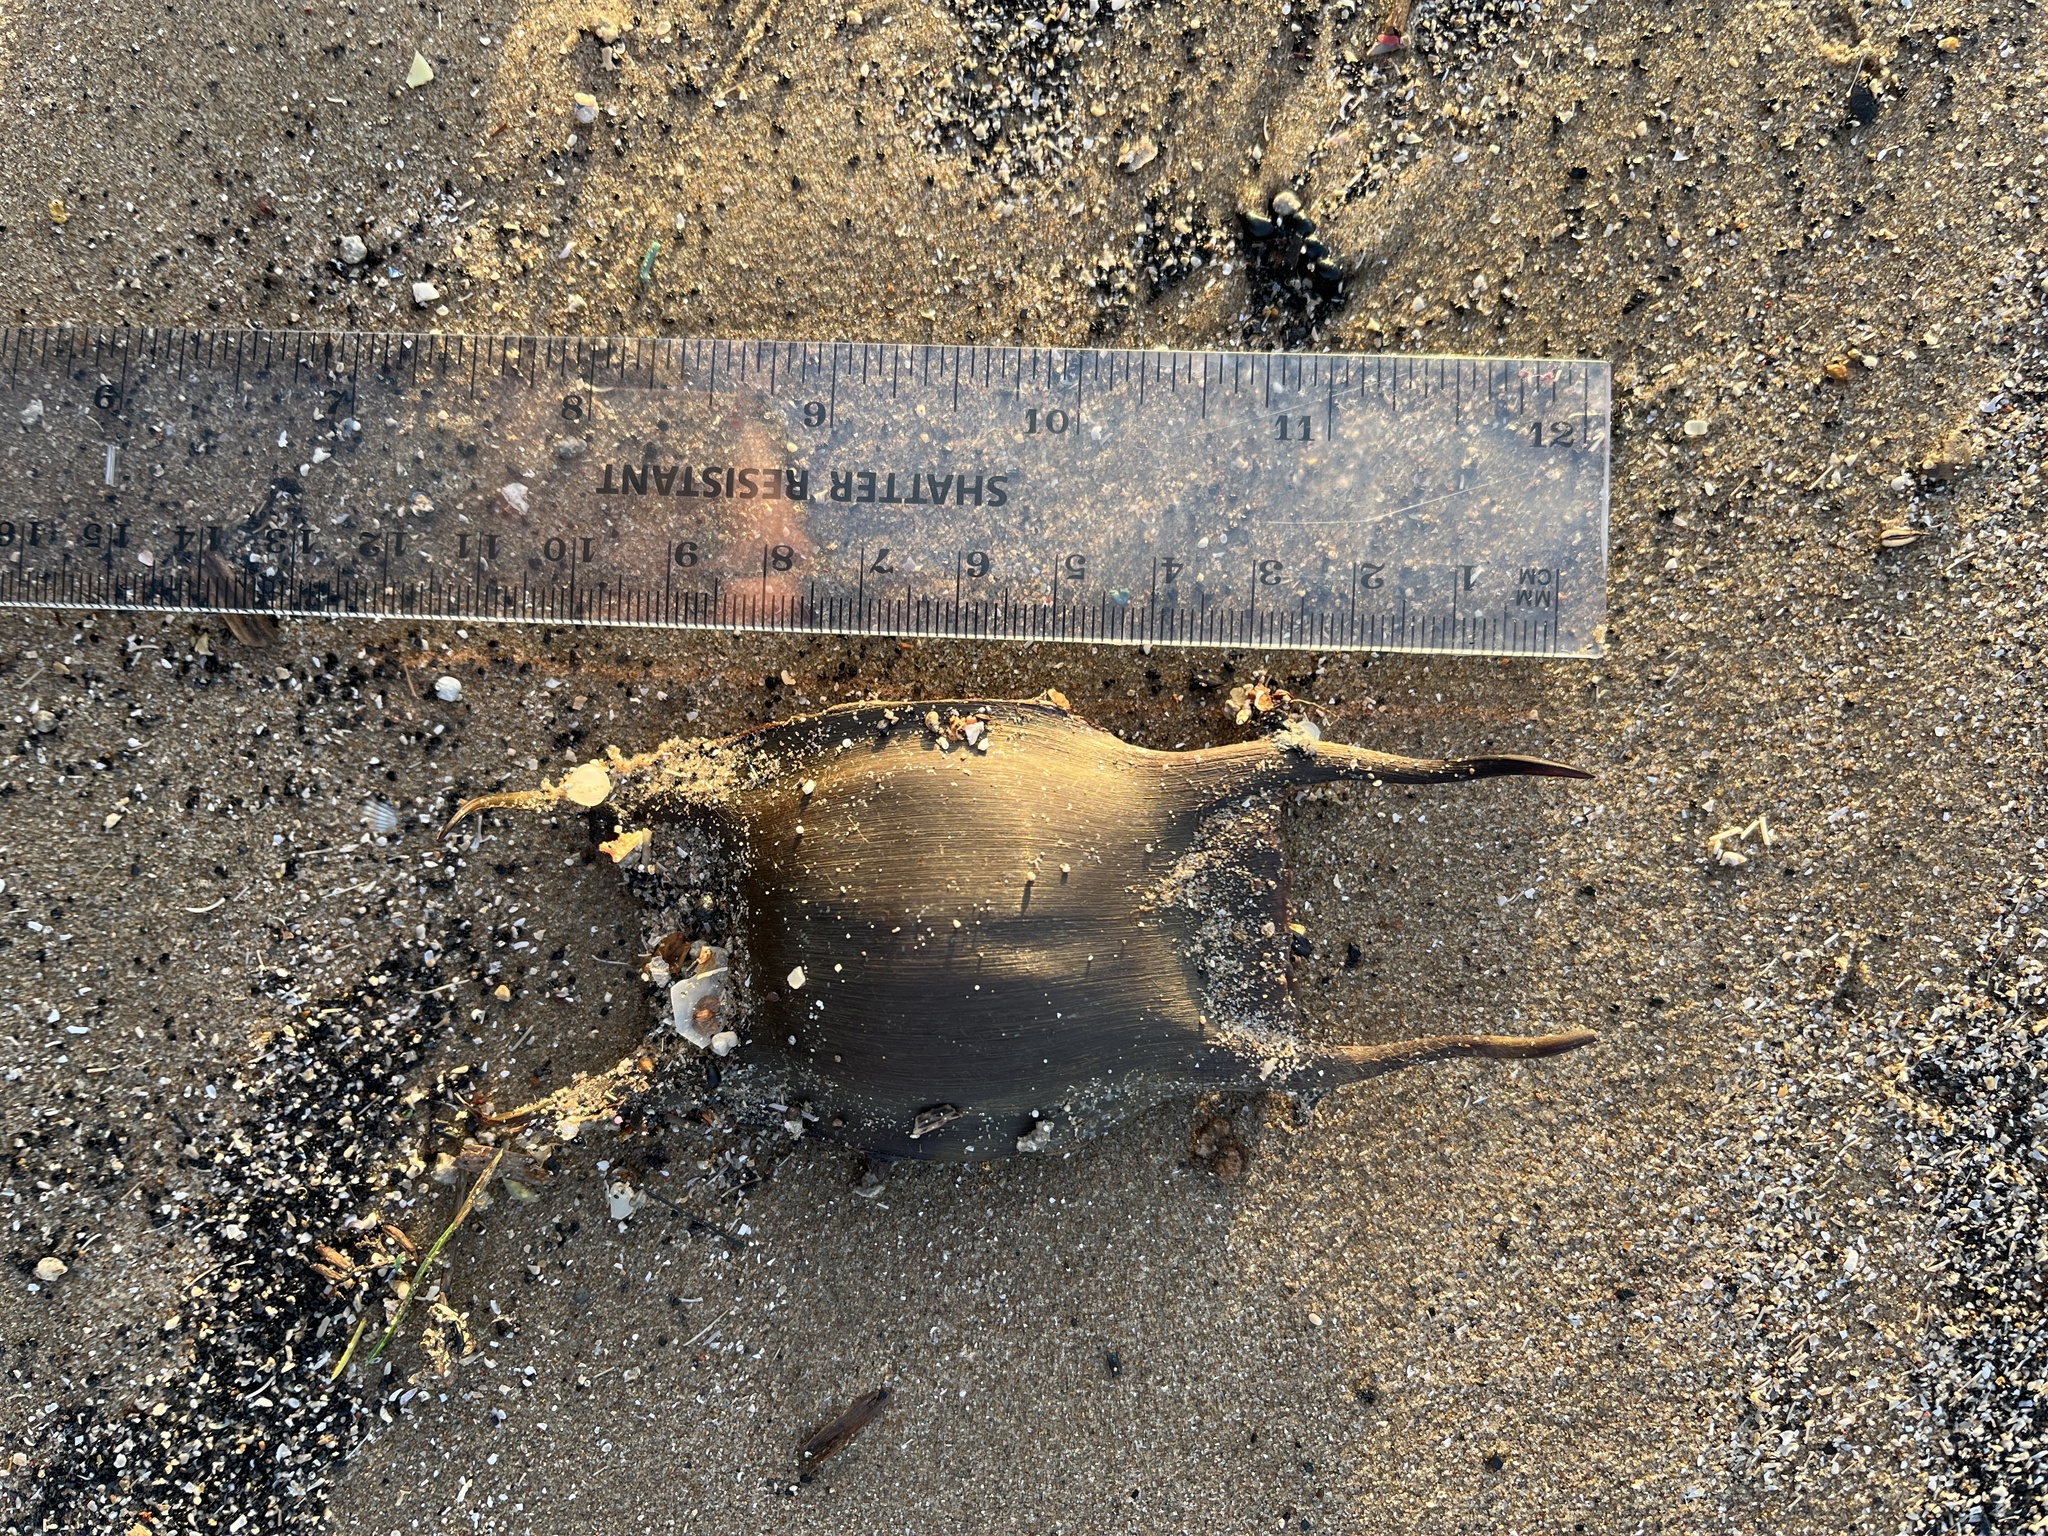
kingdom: Animalia
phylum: Chordata
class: Elasmobranchii
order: Rajiformes
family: Rajidae
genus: Raja
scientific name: Raja clavata
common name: Thornback ray
